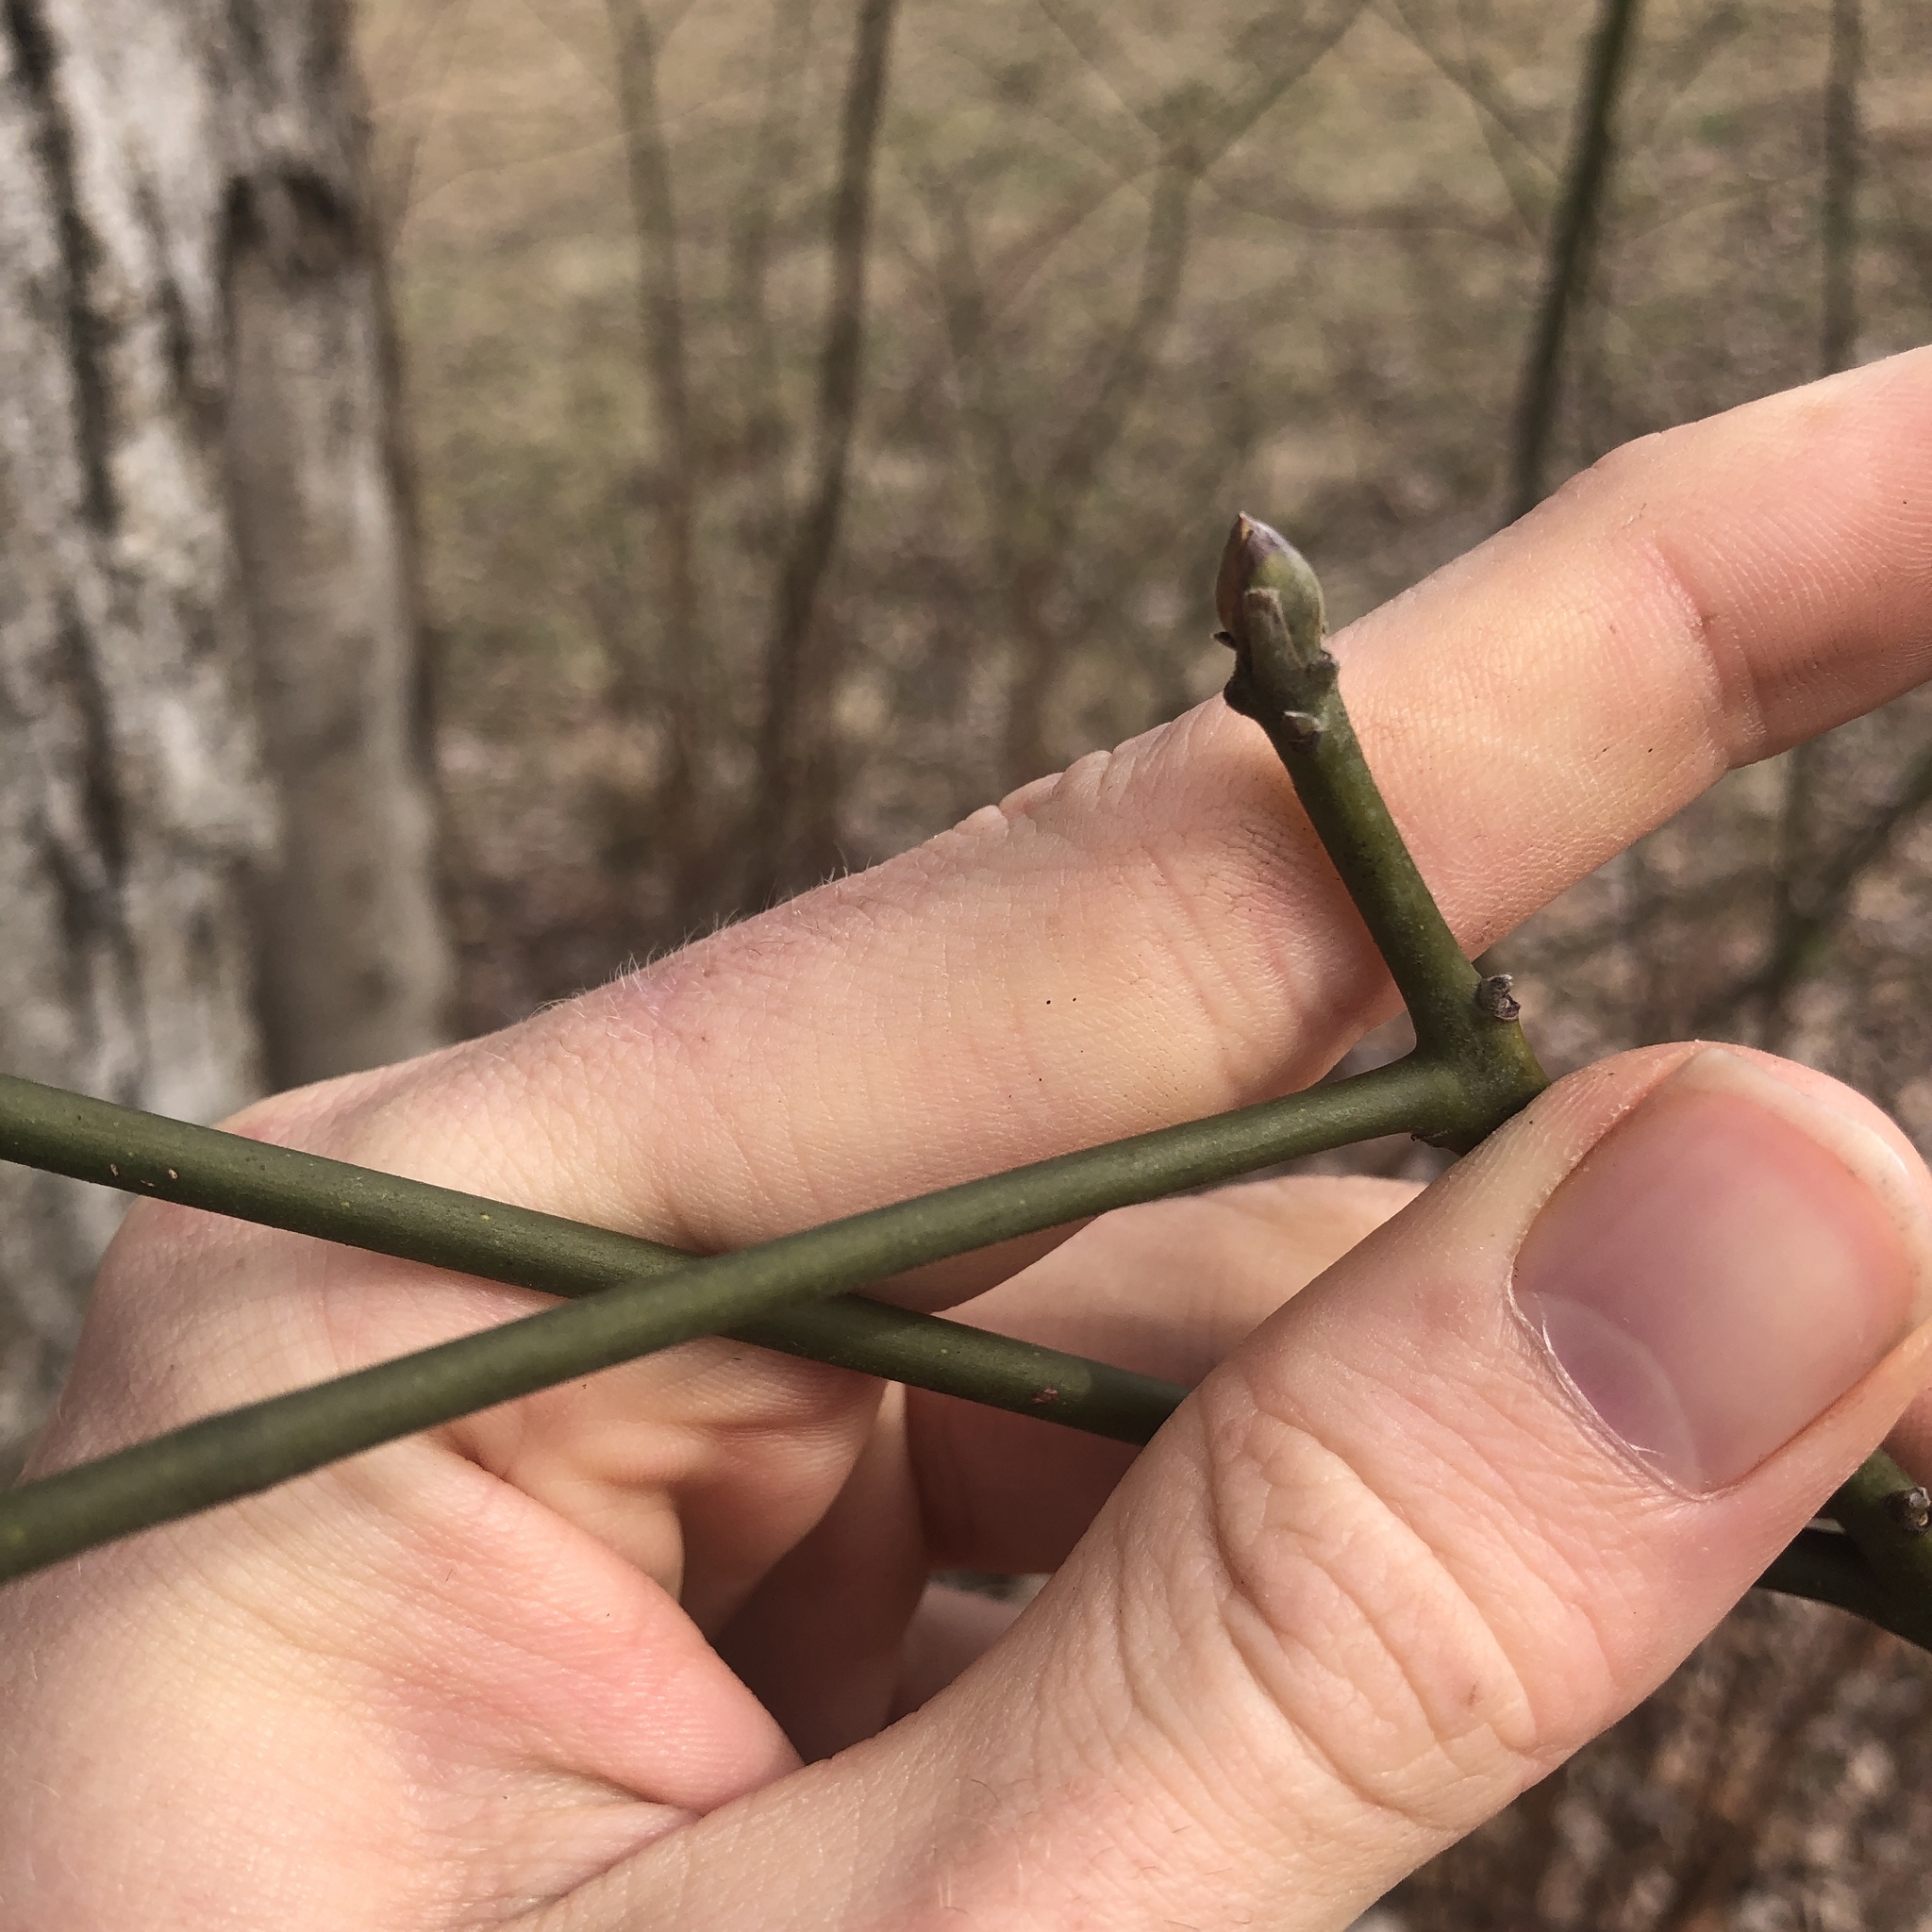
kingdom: Plantae
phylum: Tracheophyta
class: Magnoliopsida
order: Laurales
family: Lauraceae
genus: Sassafras
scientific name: Sassafras albidum
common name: Sassafras
